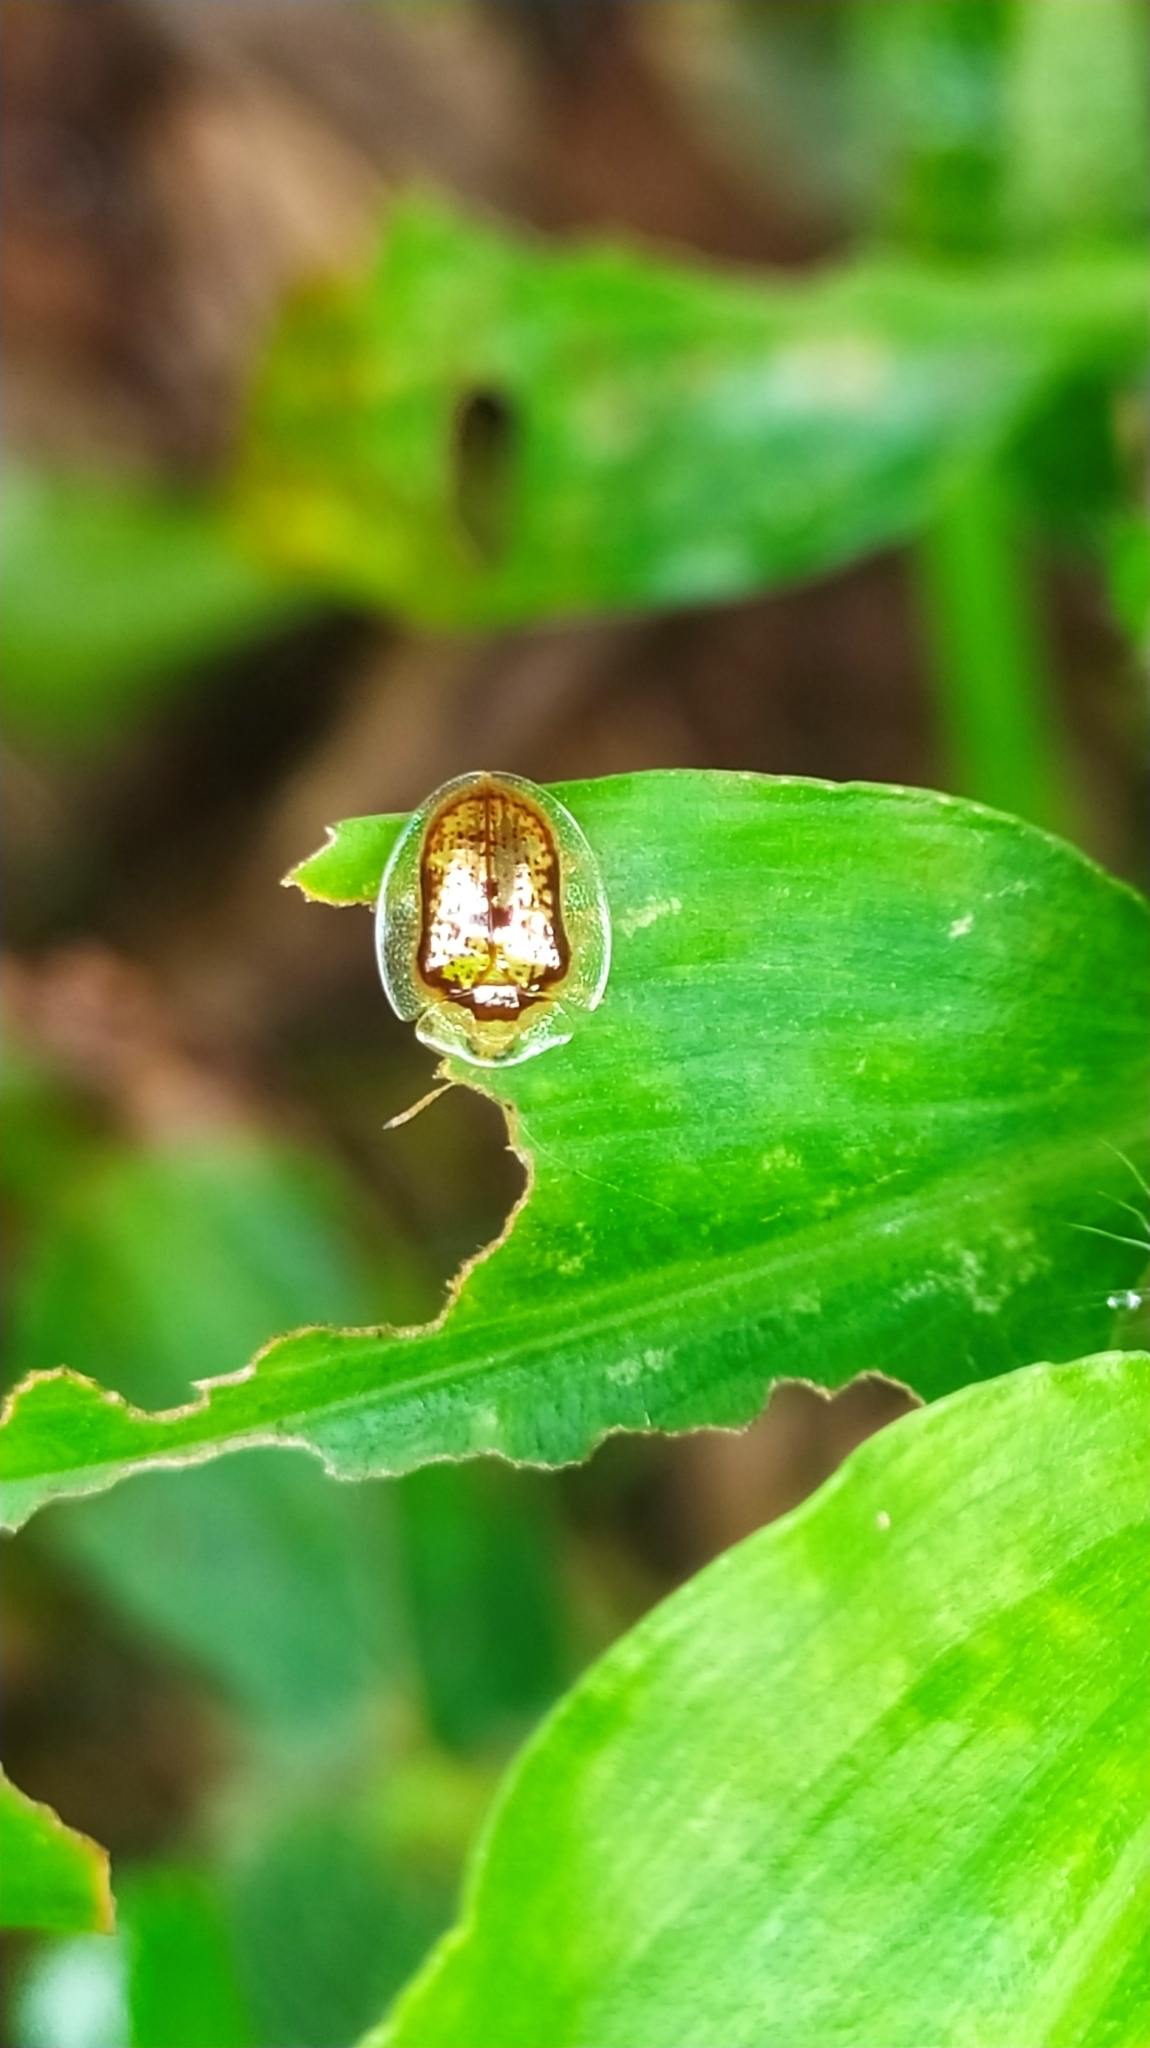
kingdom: Animalia
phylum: Arthropoda
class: Insecta
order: Coleoptera
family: Chrysomelidae
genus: Microctenochira
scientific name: Microctenochira quadrata
